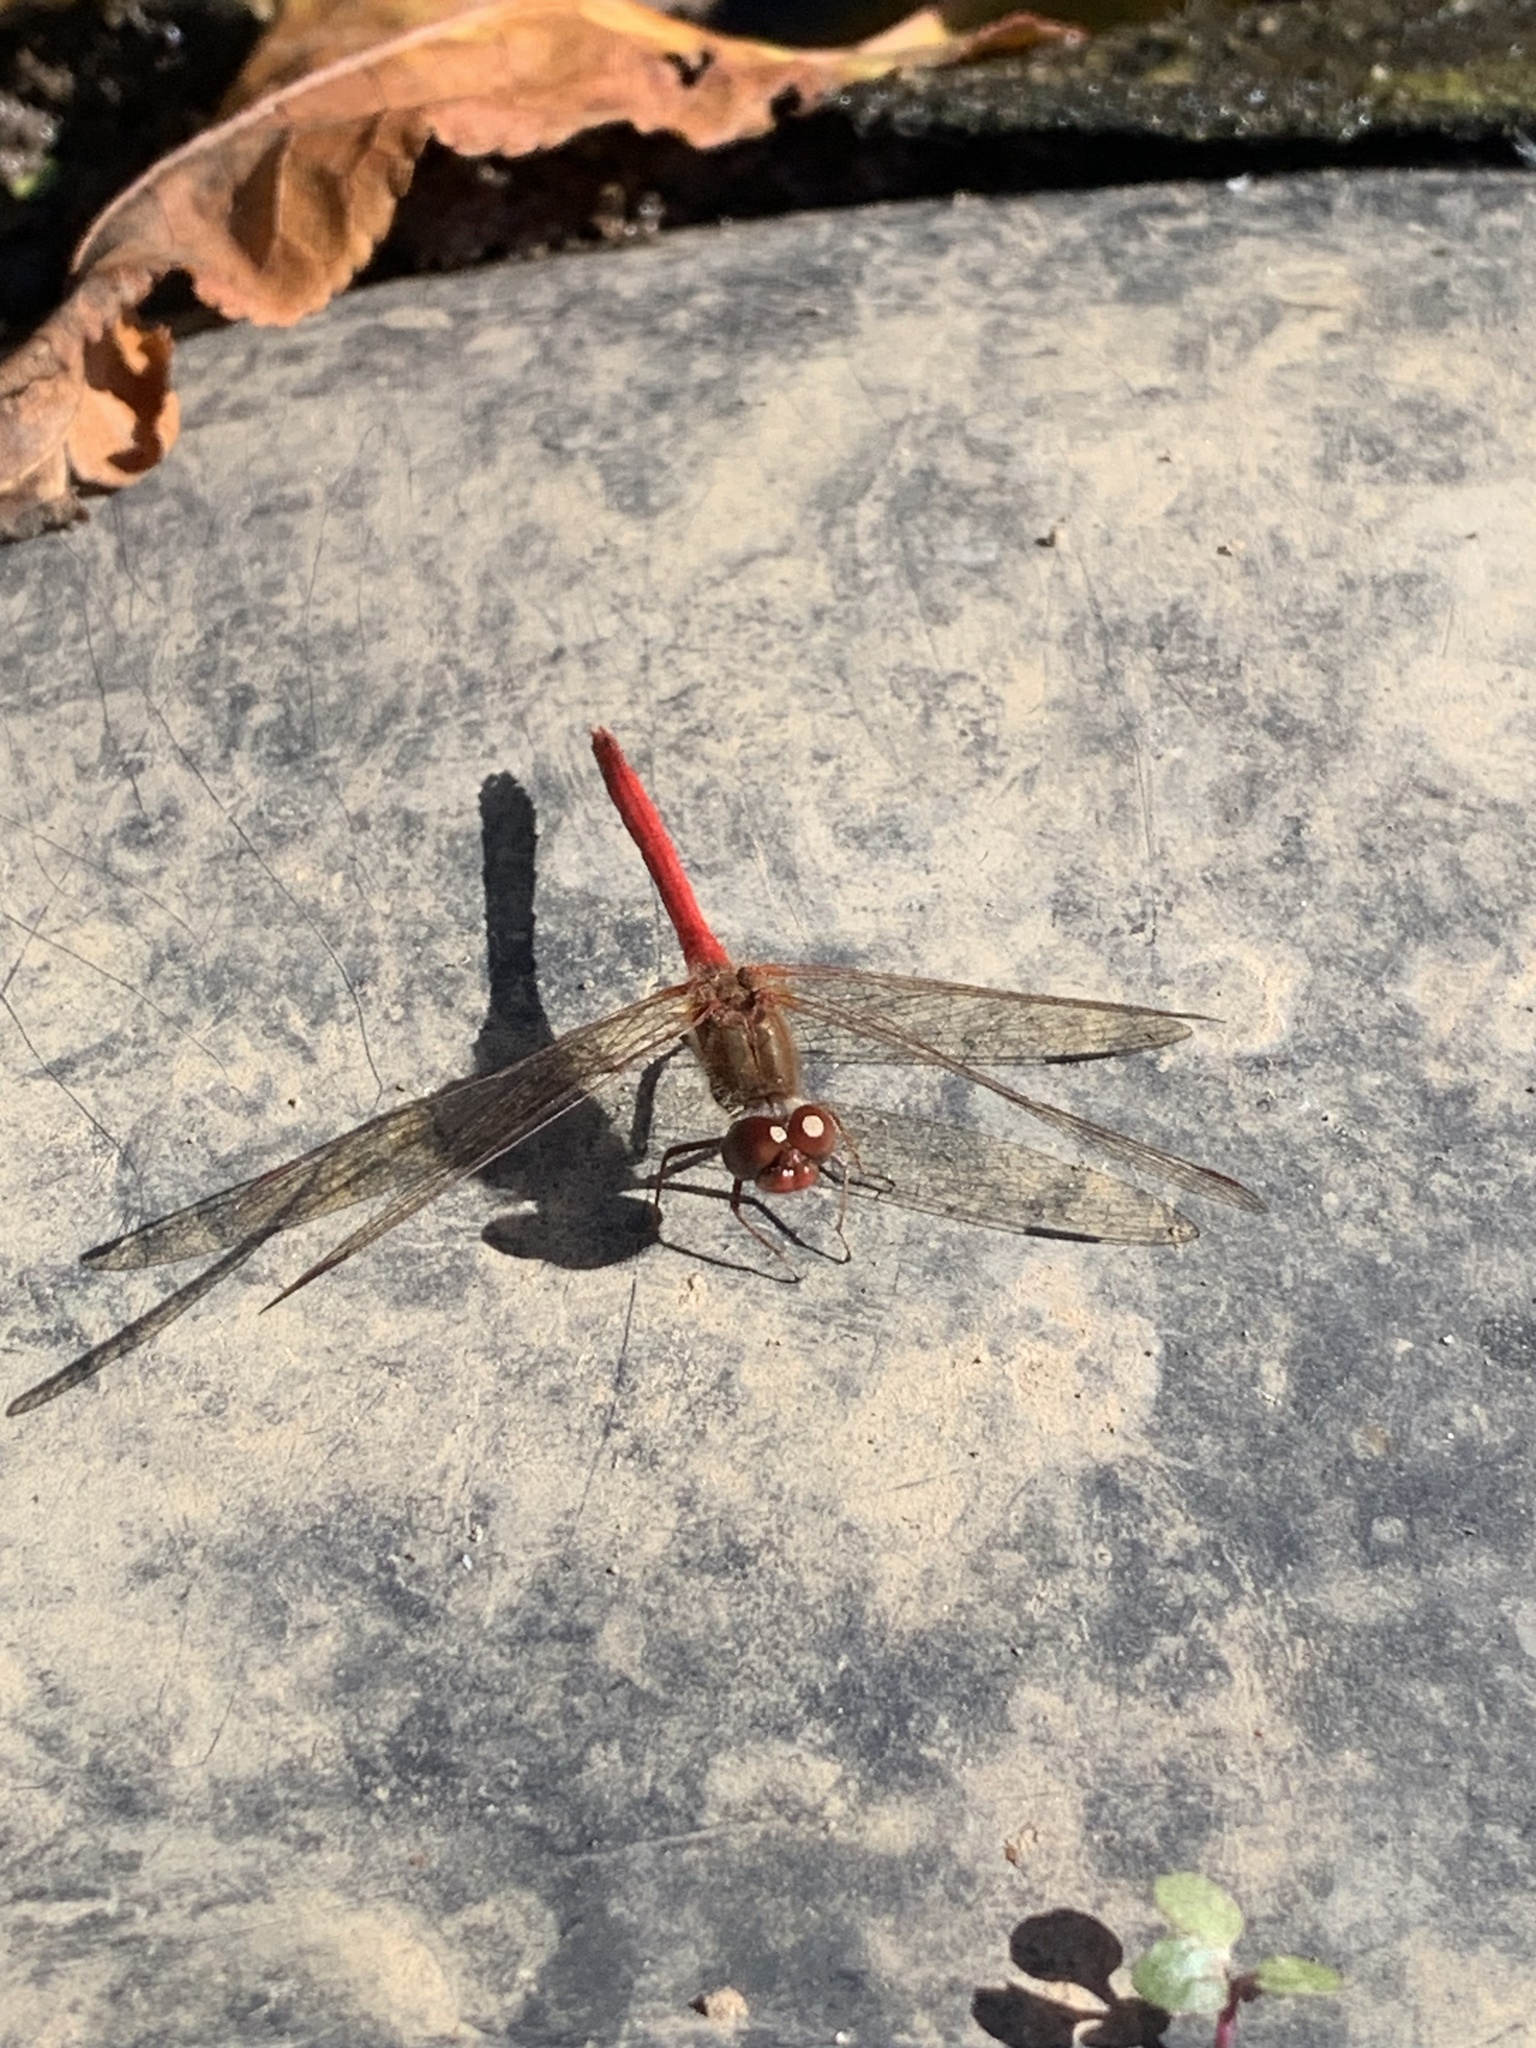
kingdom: Animalia
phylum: Arthropoda
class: Insecta
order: Odonata
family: Libellulidae
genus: Sympetrum
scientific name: Sympetrum vicinum
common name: Autumn meadowhawk
